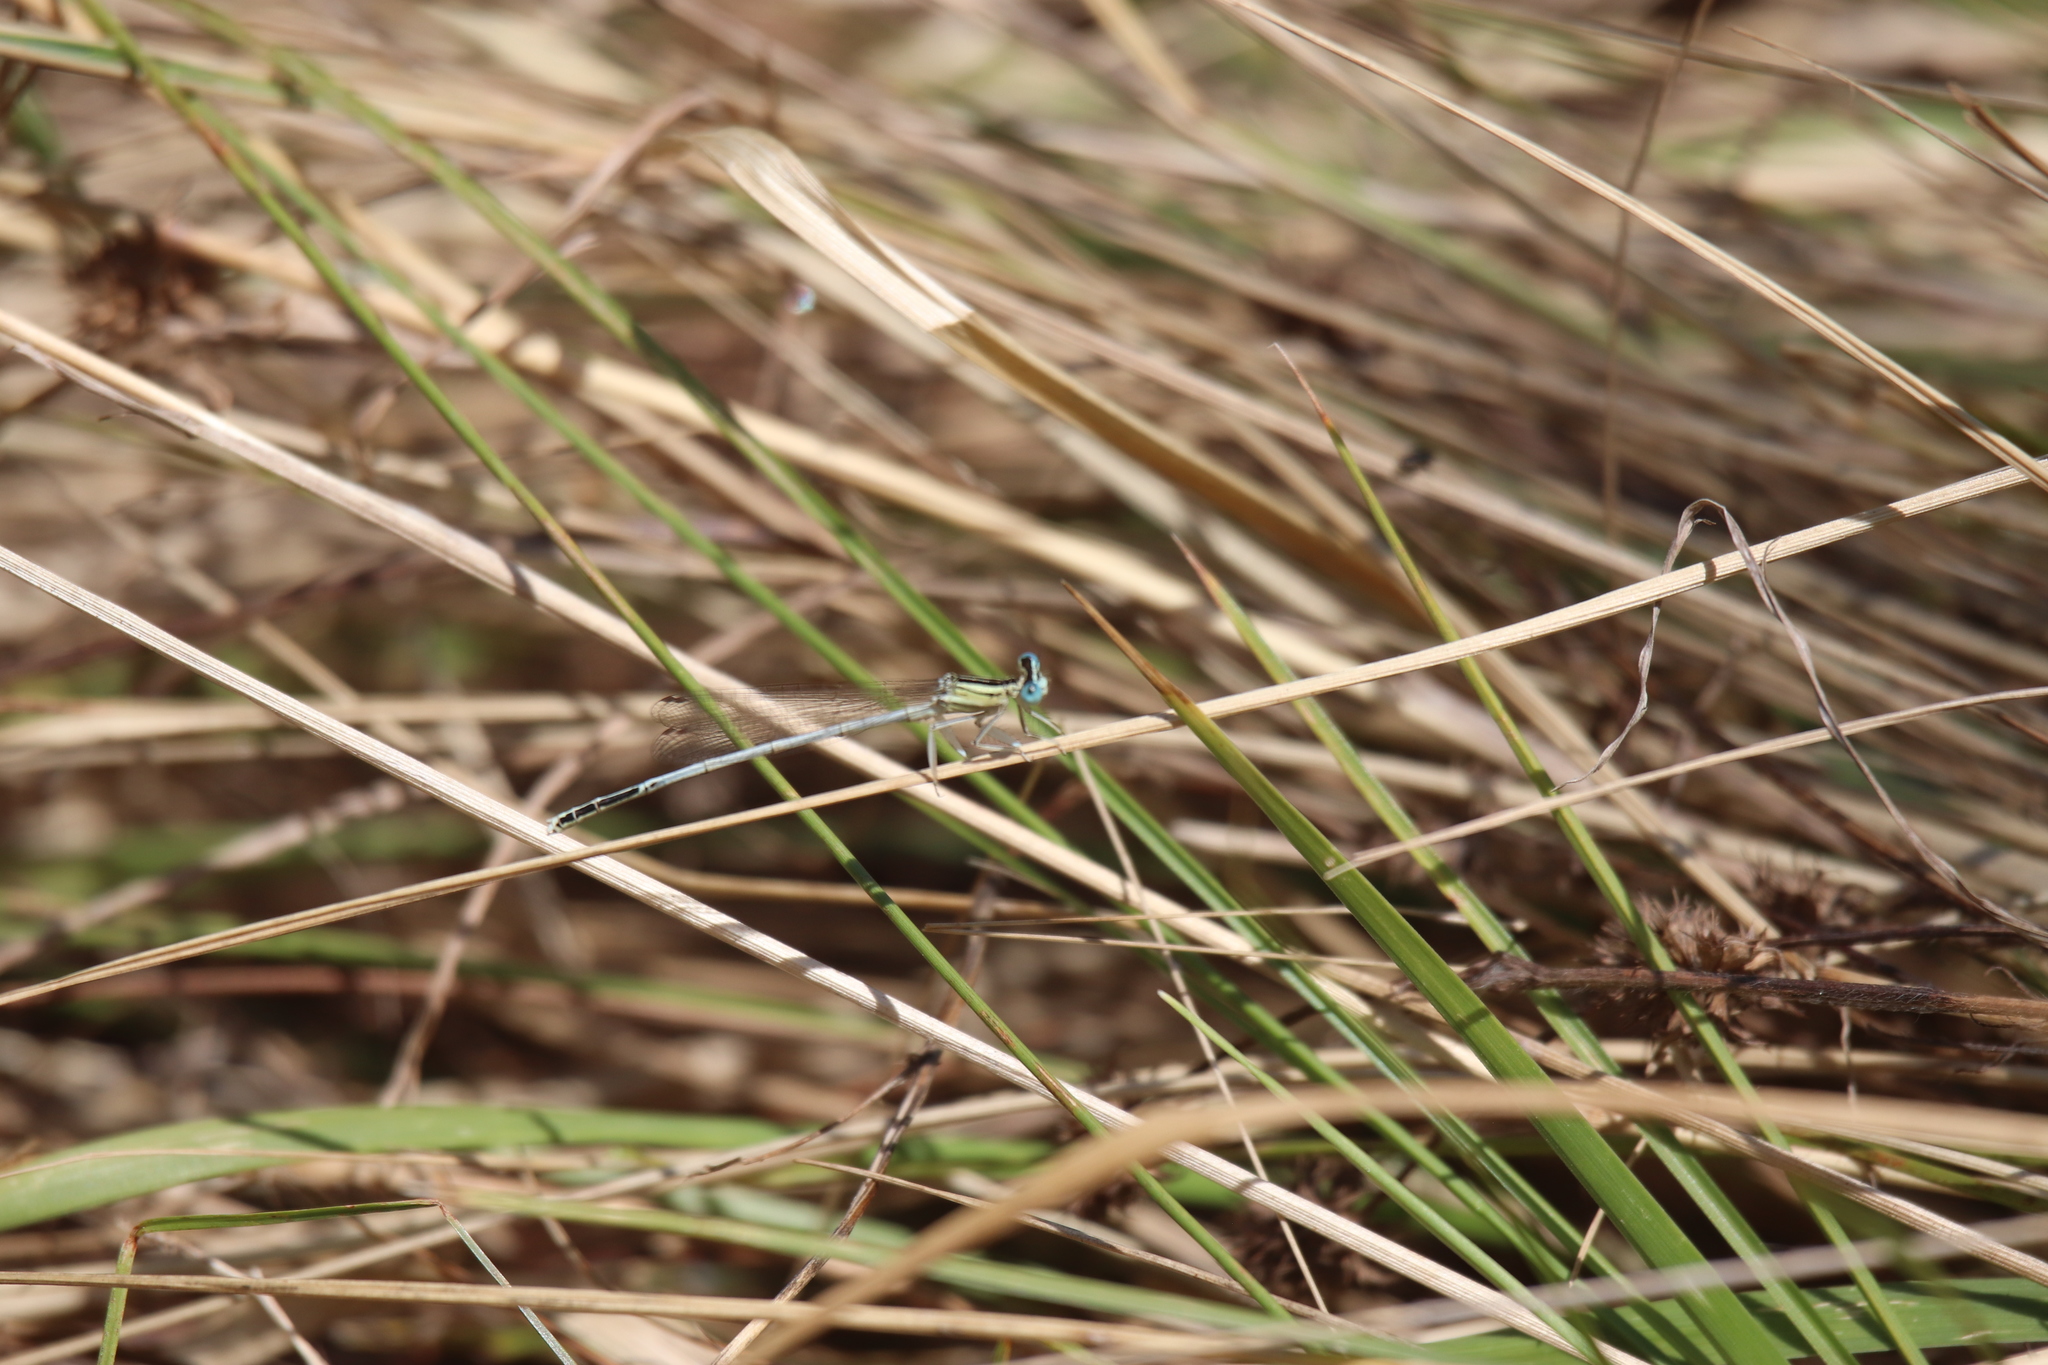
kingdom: Animalia
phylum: Arthropoda
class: Insecta
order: Odonata
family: Platycnemididae
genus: Platycnemis
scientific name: Platycnemis latipes
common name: White featherleg
